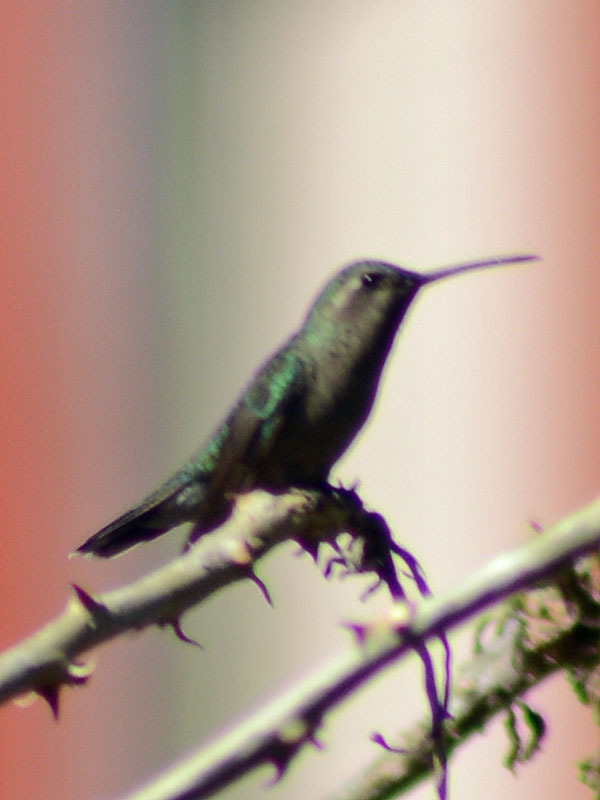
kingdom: Animalia
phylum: Chordata
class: Aves
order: Apodiformes
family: Trochilidae
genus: Cynanthus
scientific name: Cynanthus latirostris
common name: Broad-billed hummingbird
